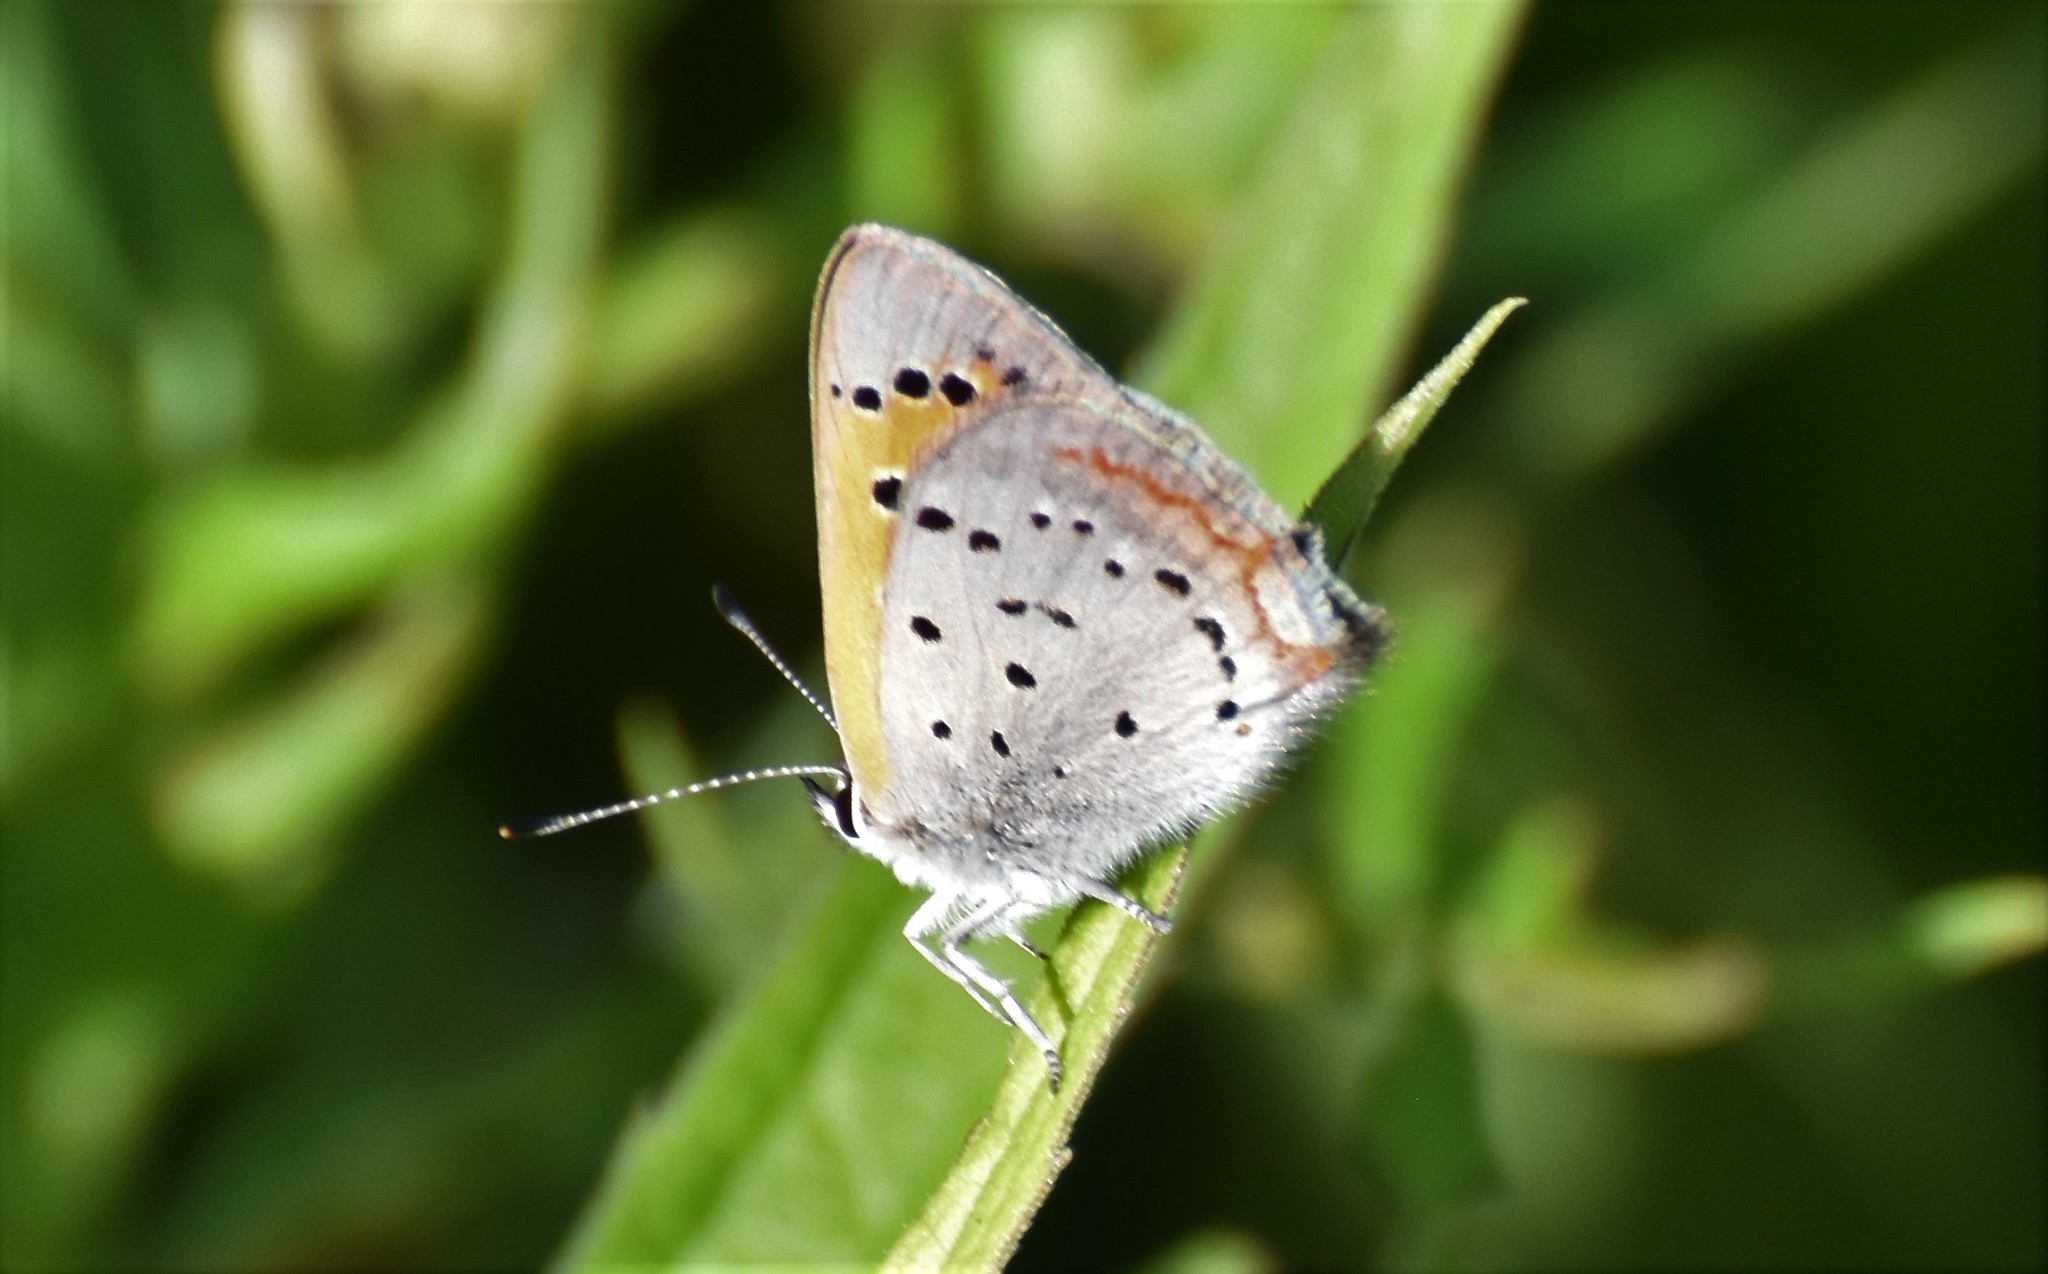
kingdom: Animalia
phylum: Arthropoda
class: Insecta
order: Lepidoptera
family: Lycaenidae
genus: Lycaena
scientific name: Lycaena hypophlaeas
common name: American copper
